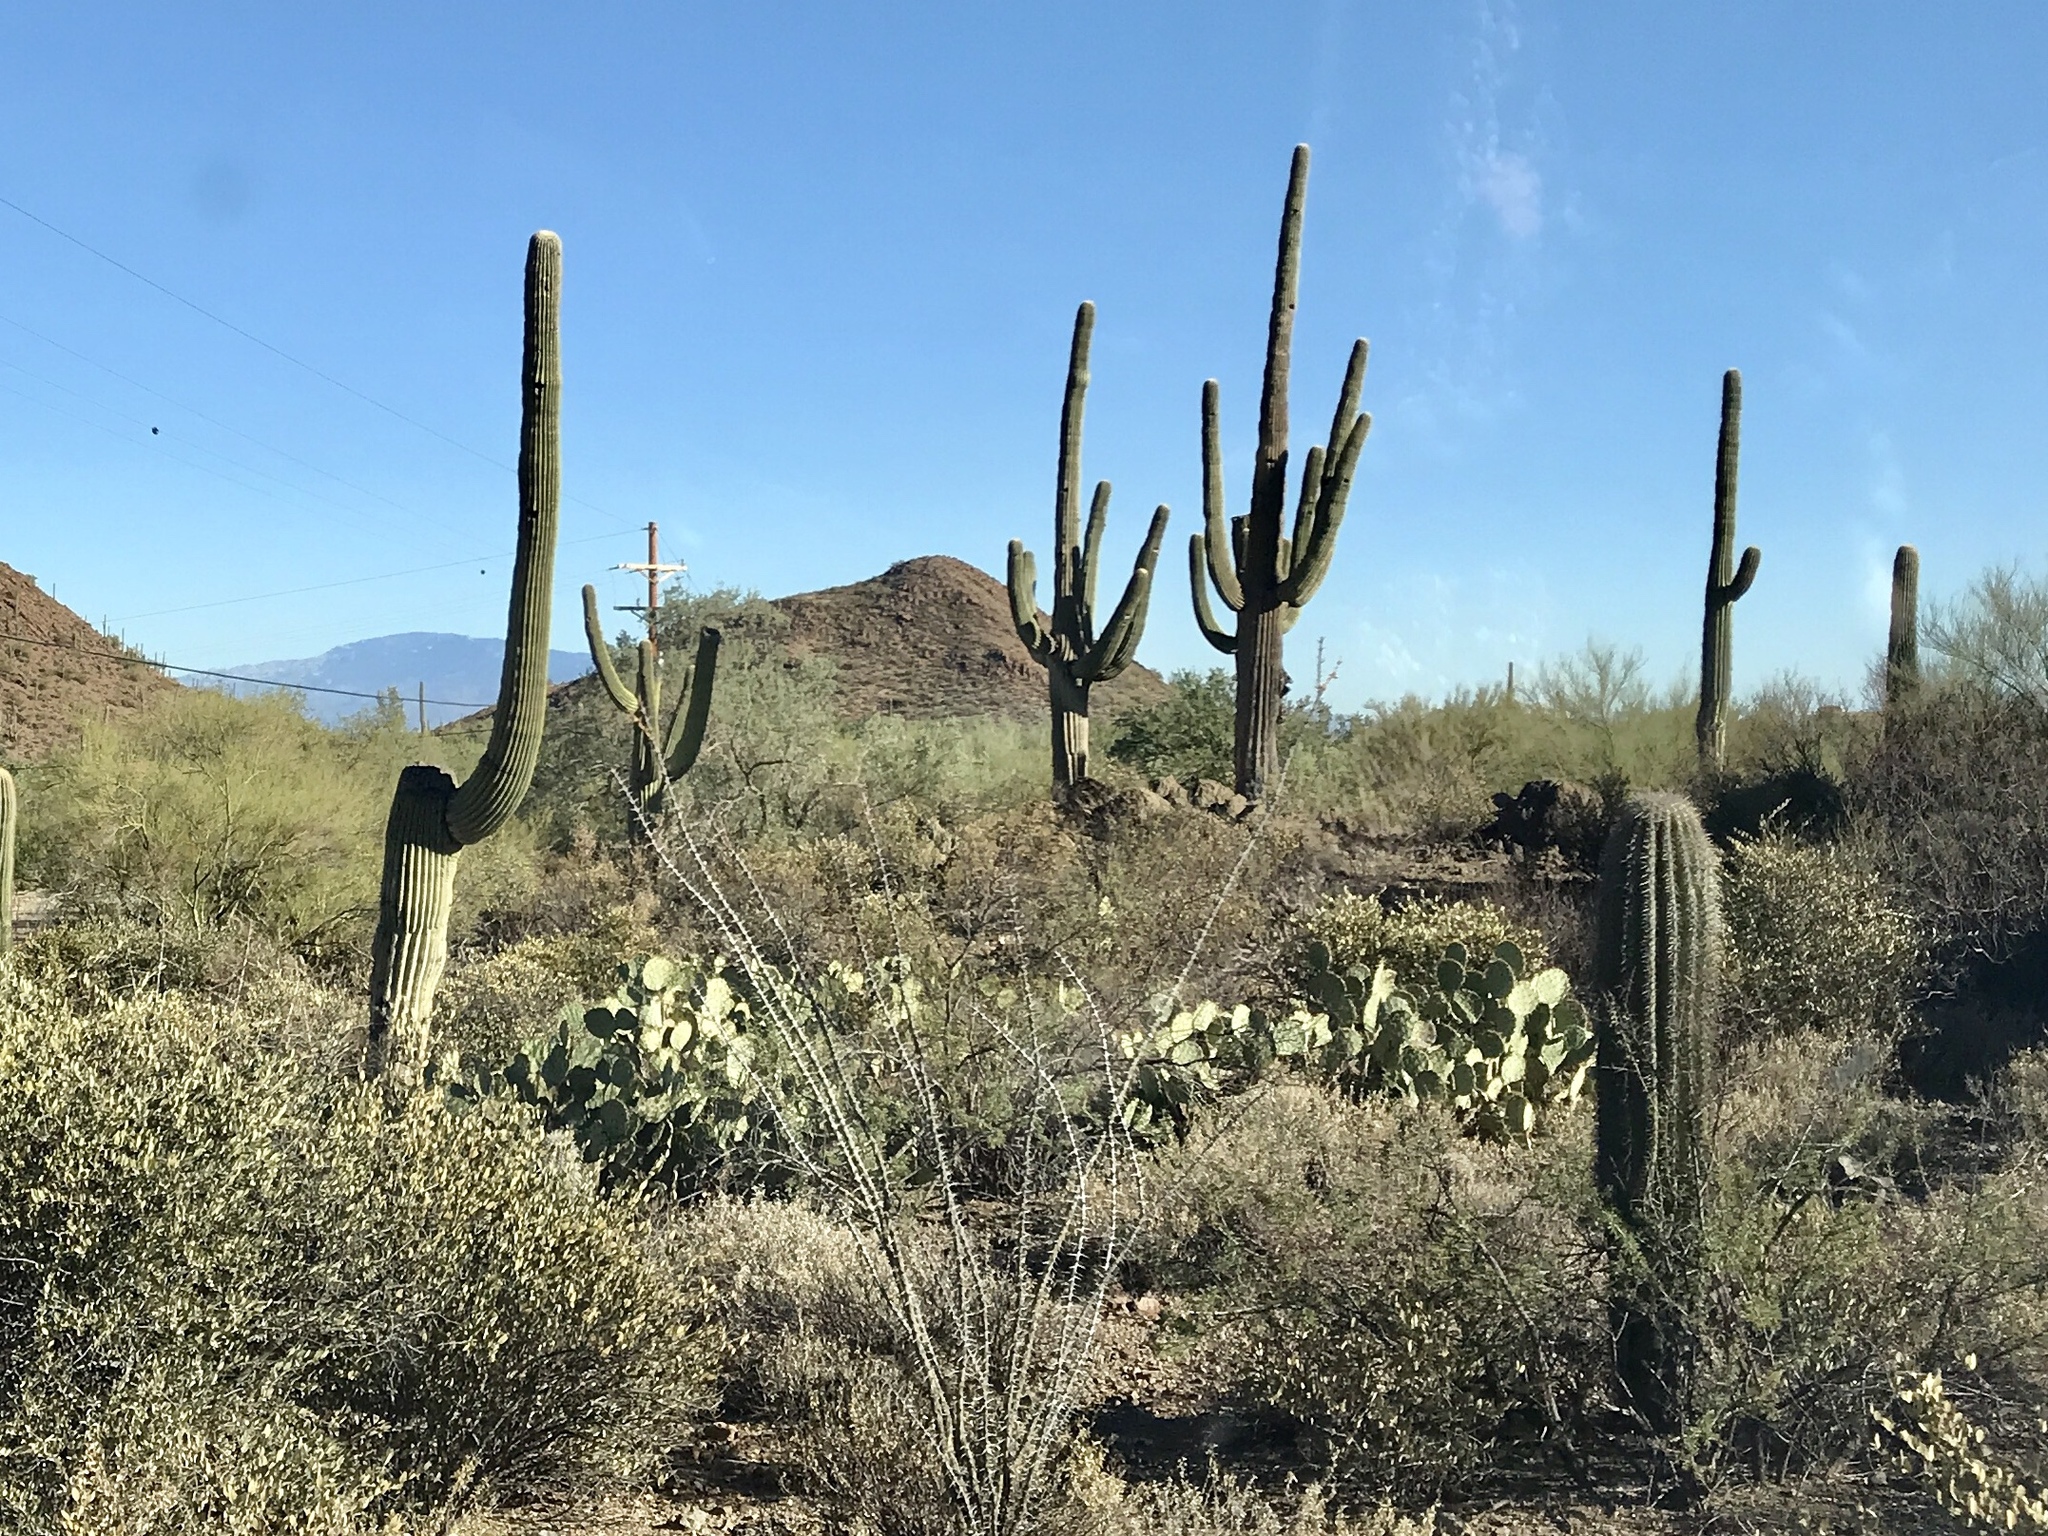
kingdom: Plantae
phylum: Tracheophyta
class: Magnoliopsida
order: Caryophyllales
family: Cactaceae
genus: Carnegiea
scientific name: Carnegiea gigantea
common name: Saguaro
